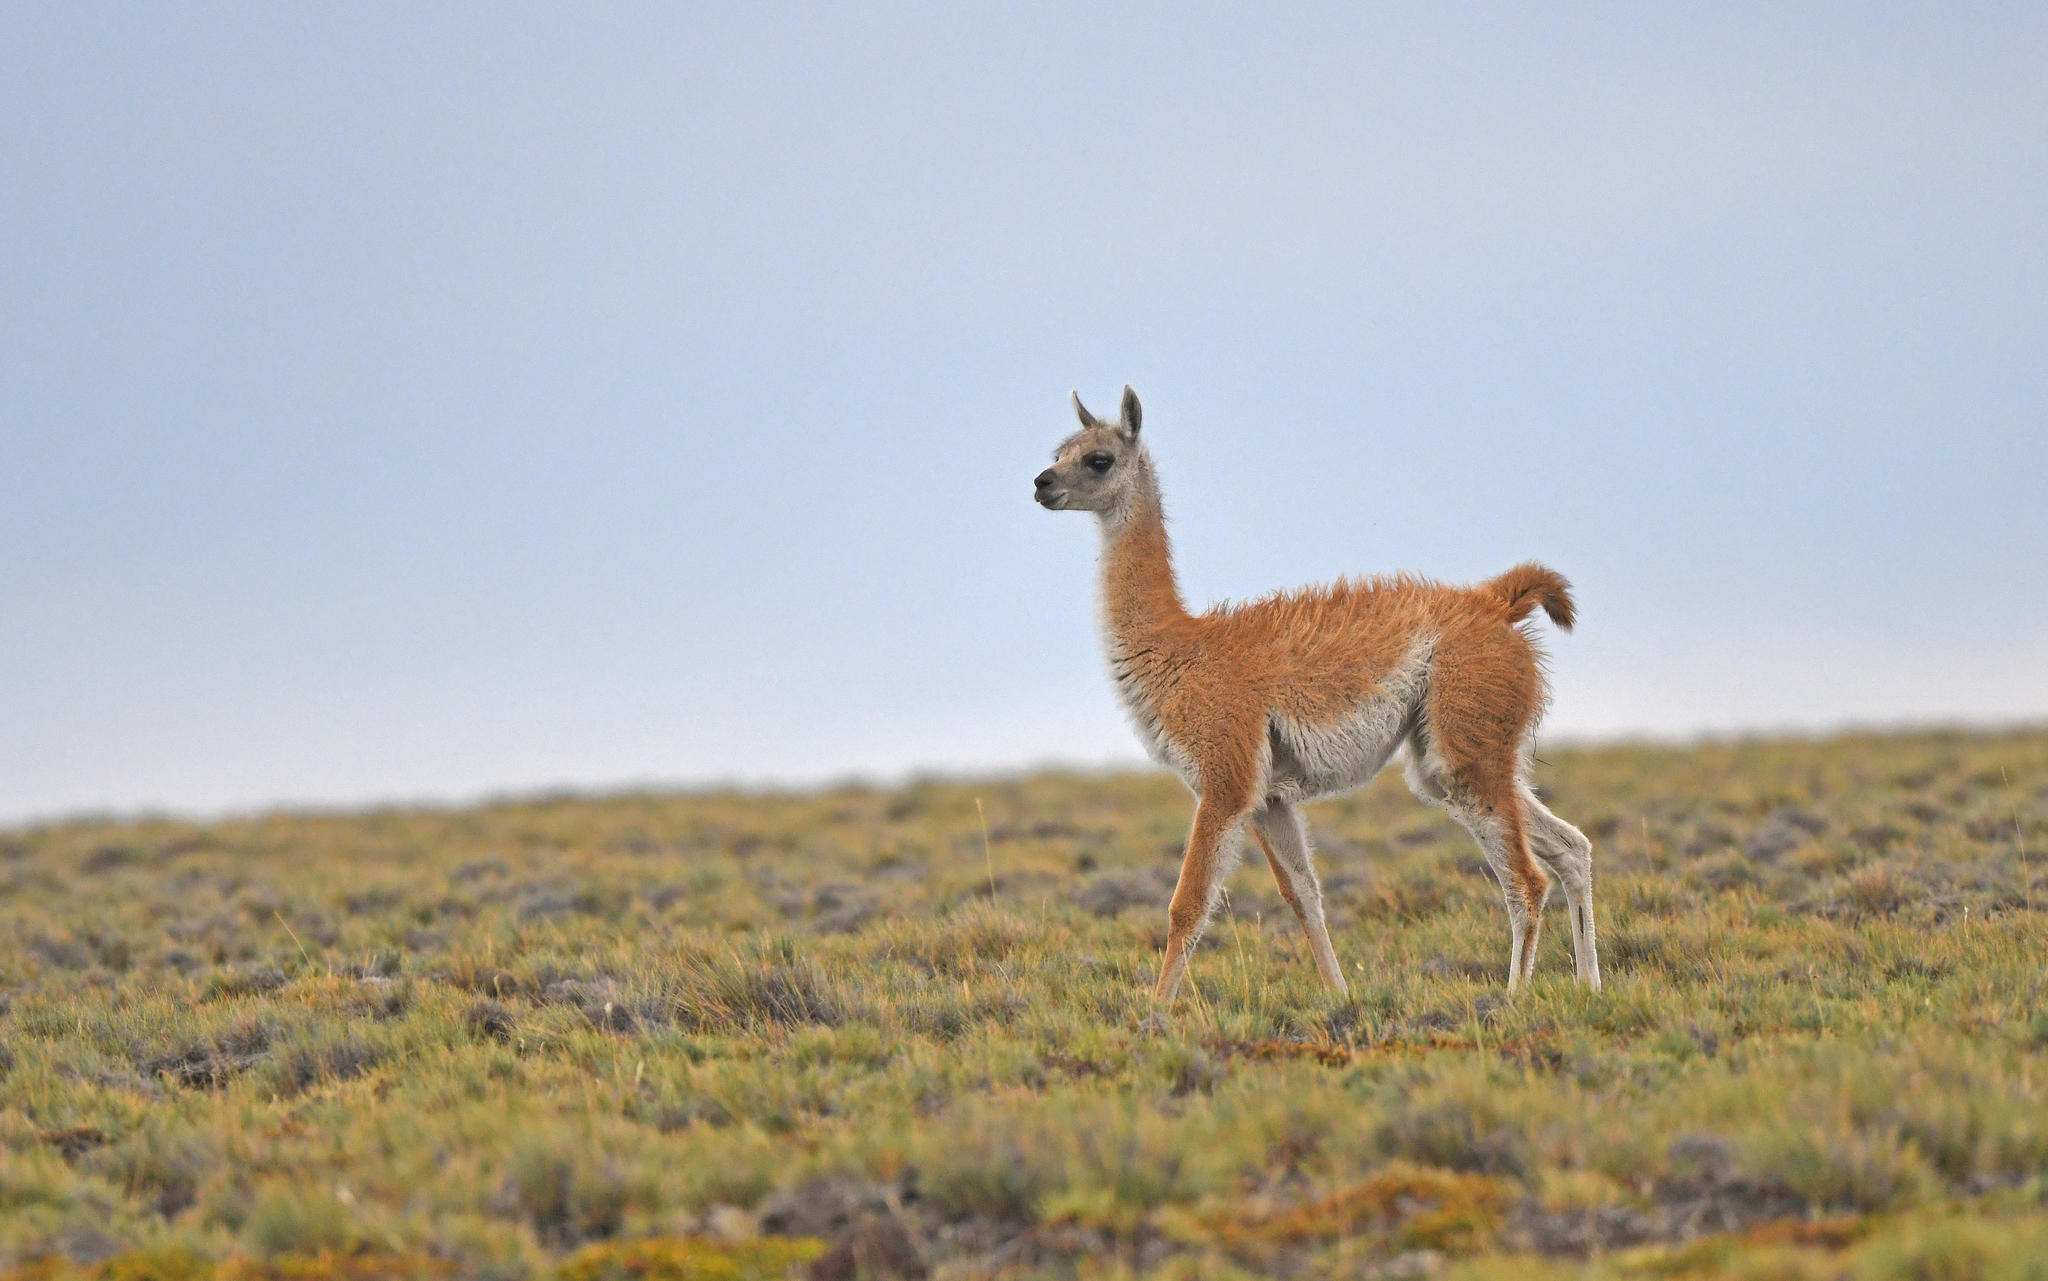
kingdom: Animalia
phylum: Chordata
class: Mammalia
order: Artiodactyla
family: Camelidae
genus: Lama
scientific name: Lama glama
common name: Llama
